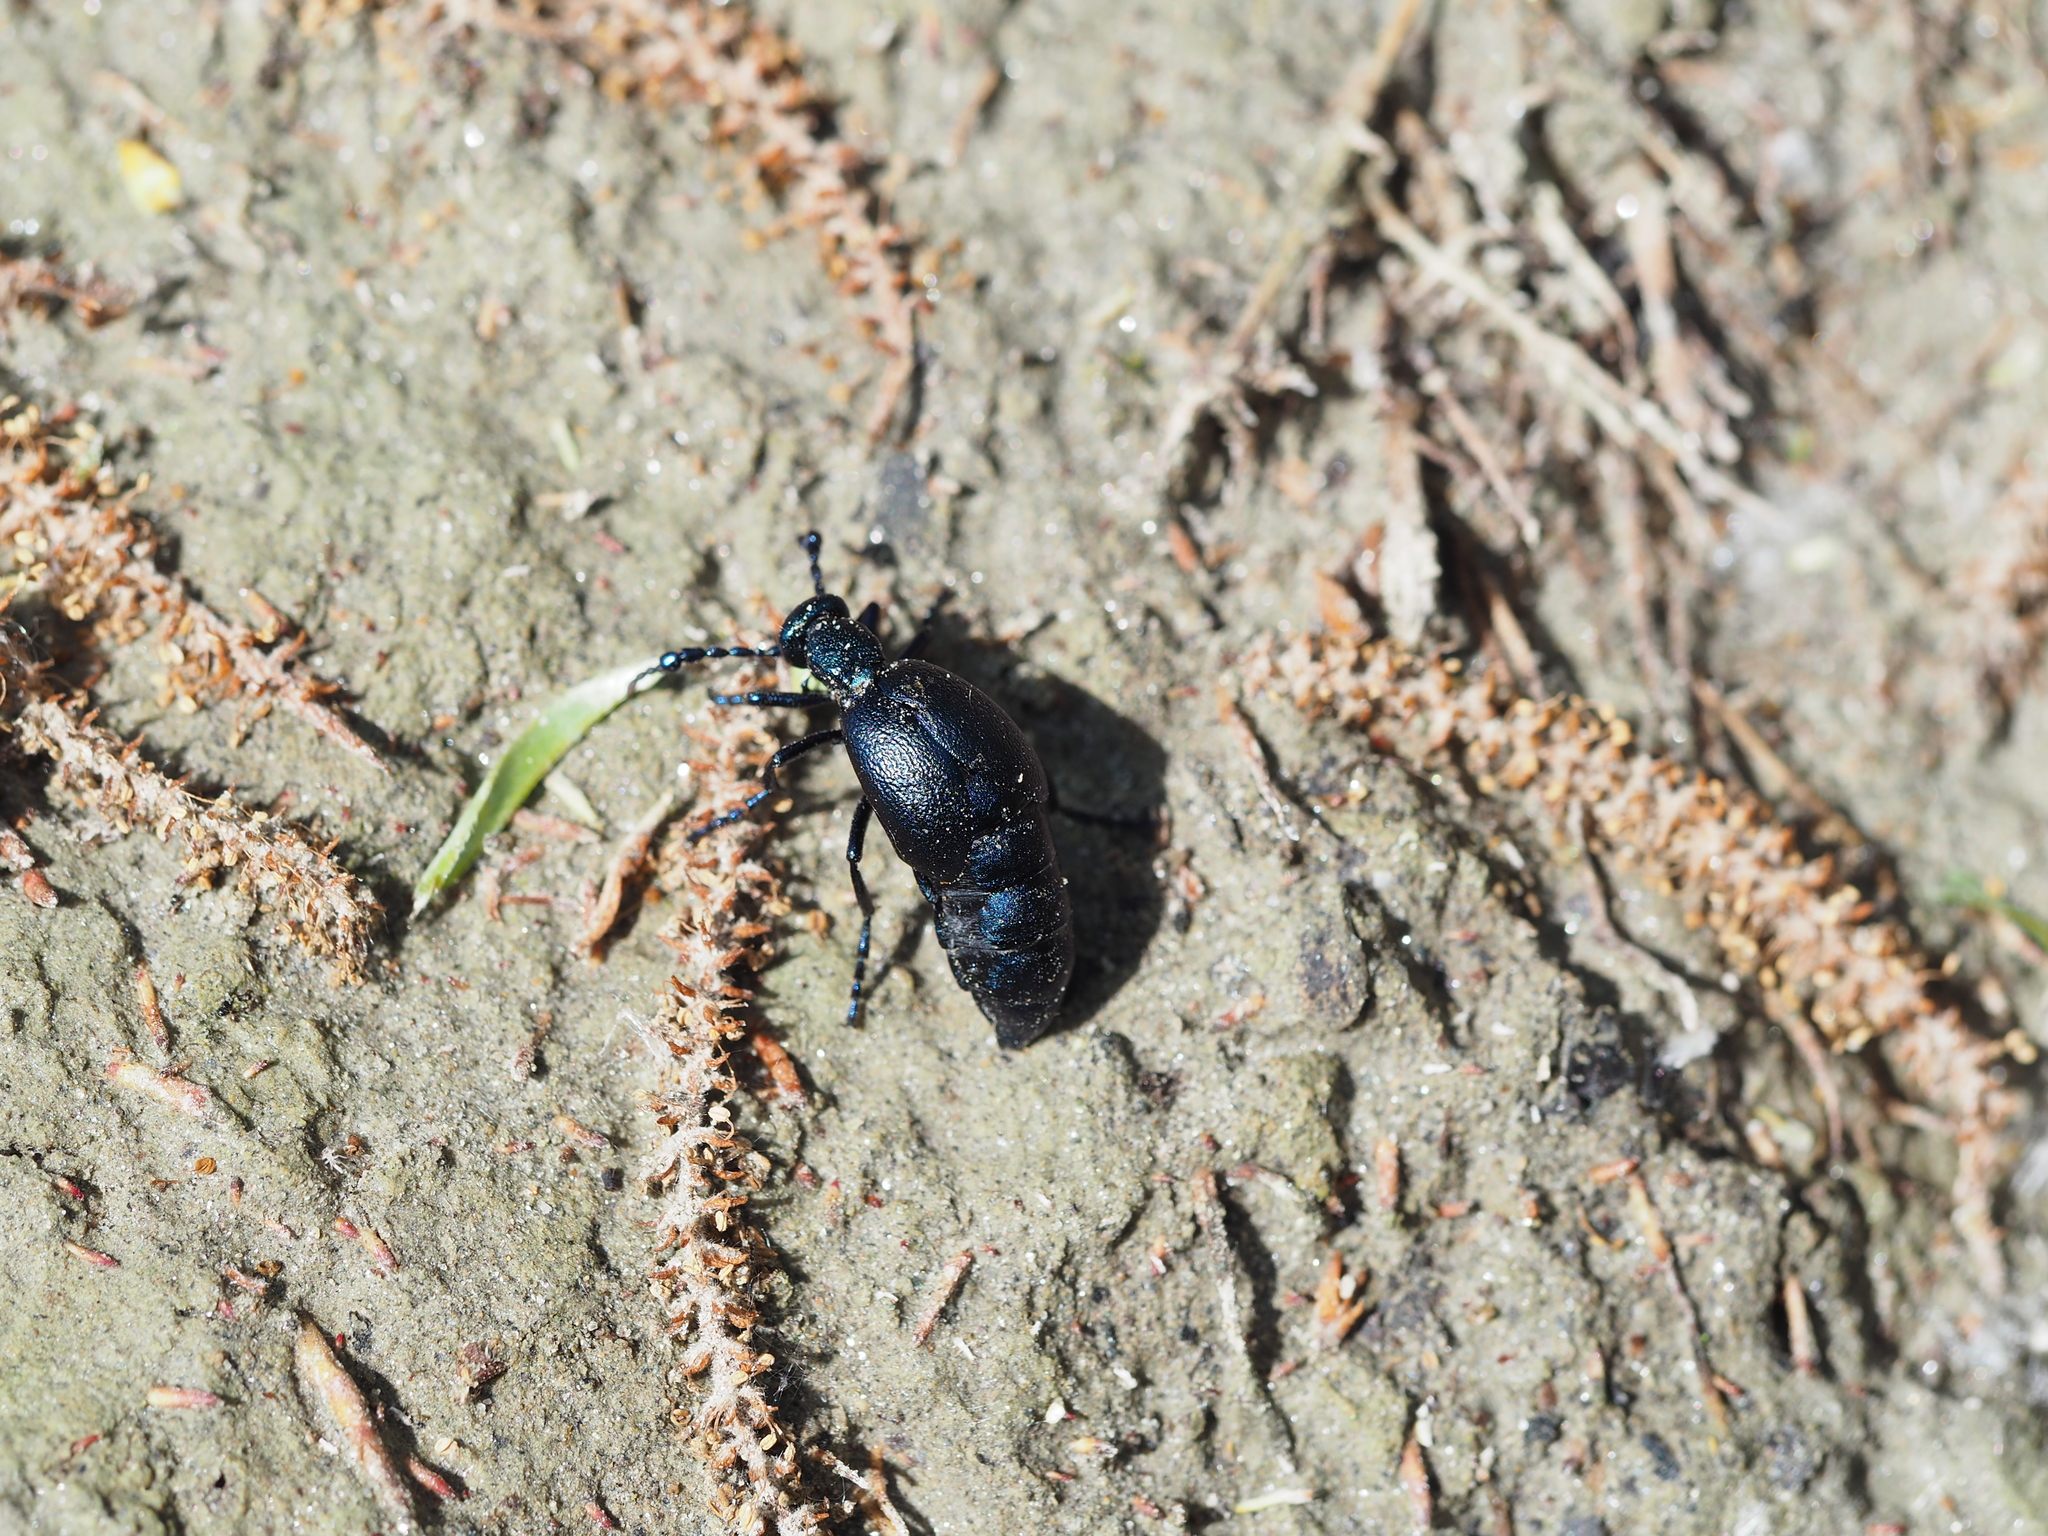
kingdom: Animalia
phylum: Arthropoda
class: Insecta
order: Coleoptera
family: Meloidae
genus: Meloe
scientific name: Meloe violaceus
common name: Violet oil-beetle
